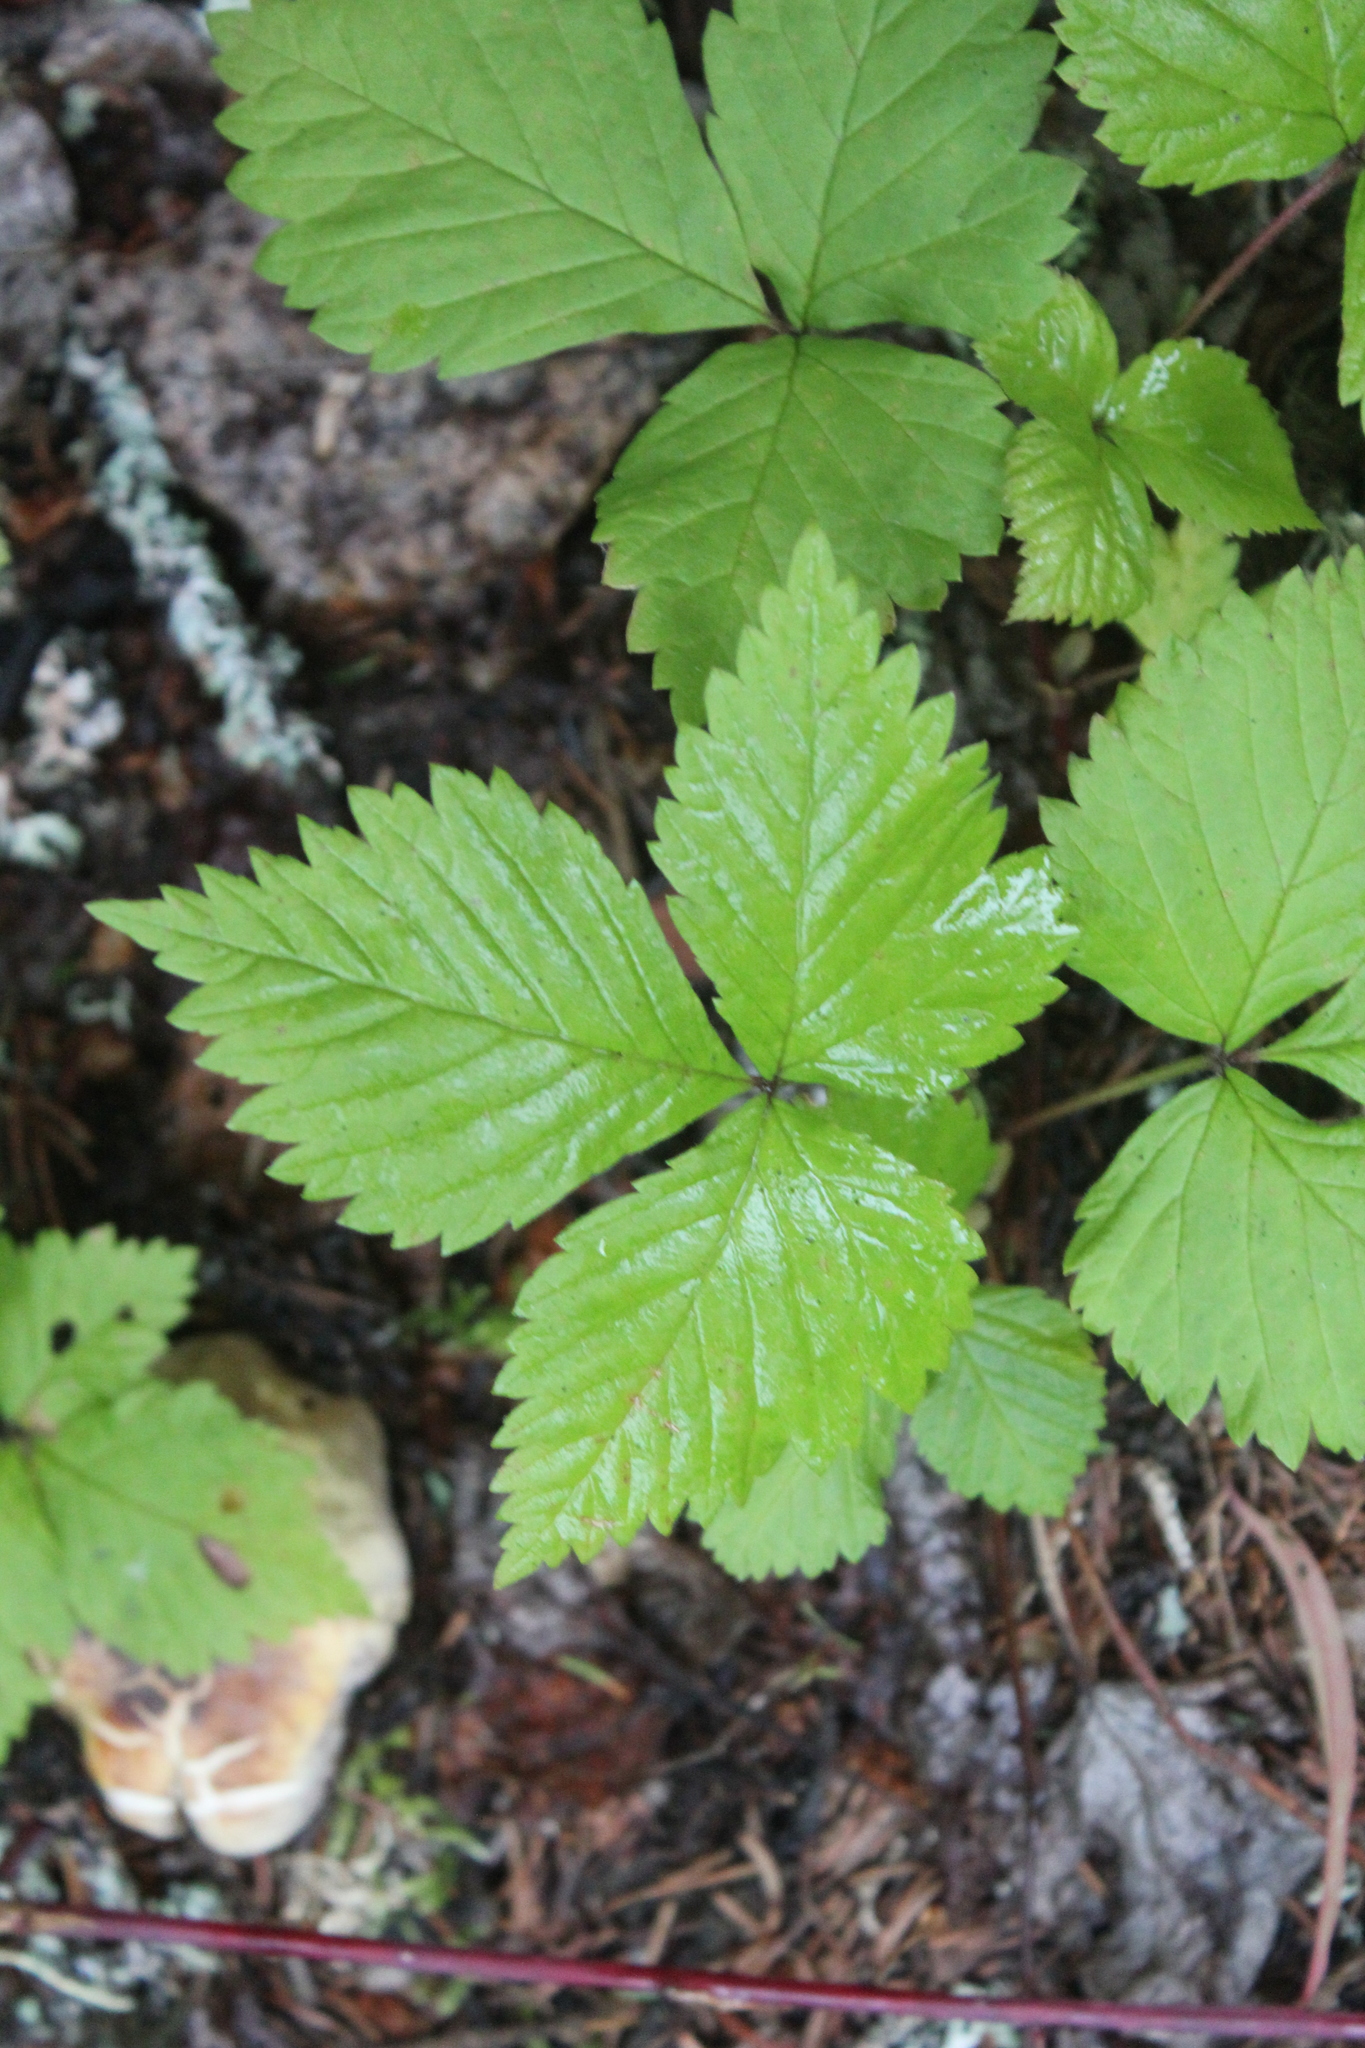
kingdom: Plantae
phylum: Tracheophyta
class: Magnoliopsida
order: Rosales
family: Rosaceae
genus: Rubus
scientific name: Rubus pubescens
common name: Dwarf raspberry
